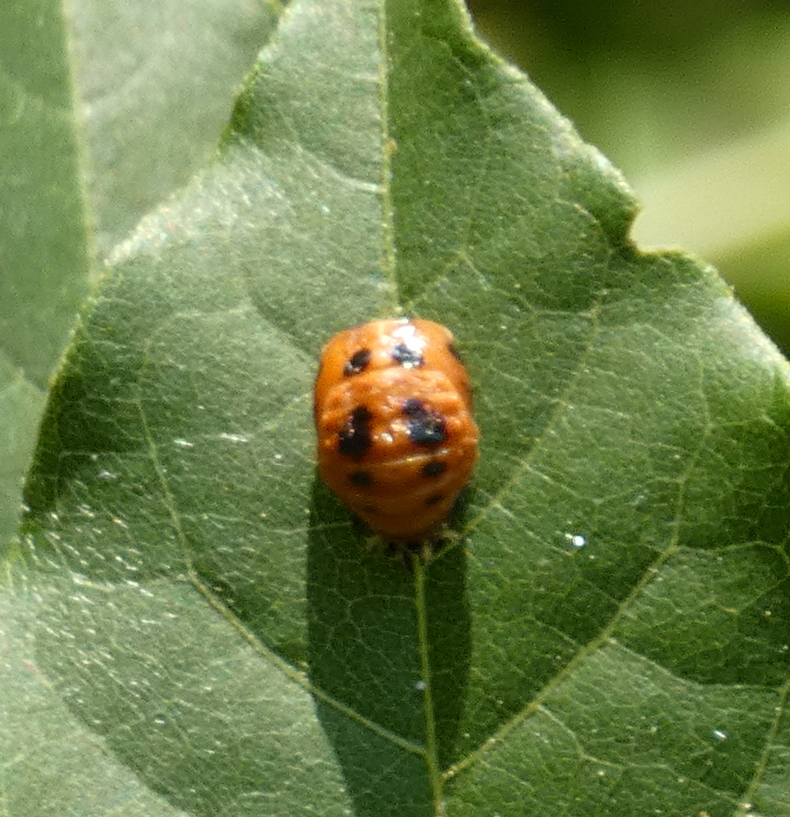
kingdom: Animalia
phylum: Arthropoda
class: Insecta
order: Coleoptera
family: Coccinellidae
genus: Harmonia
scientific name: Harmonia axyridis
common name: Harlequin ladybird
